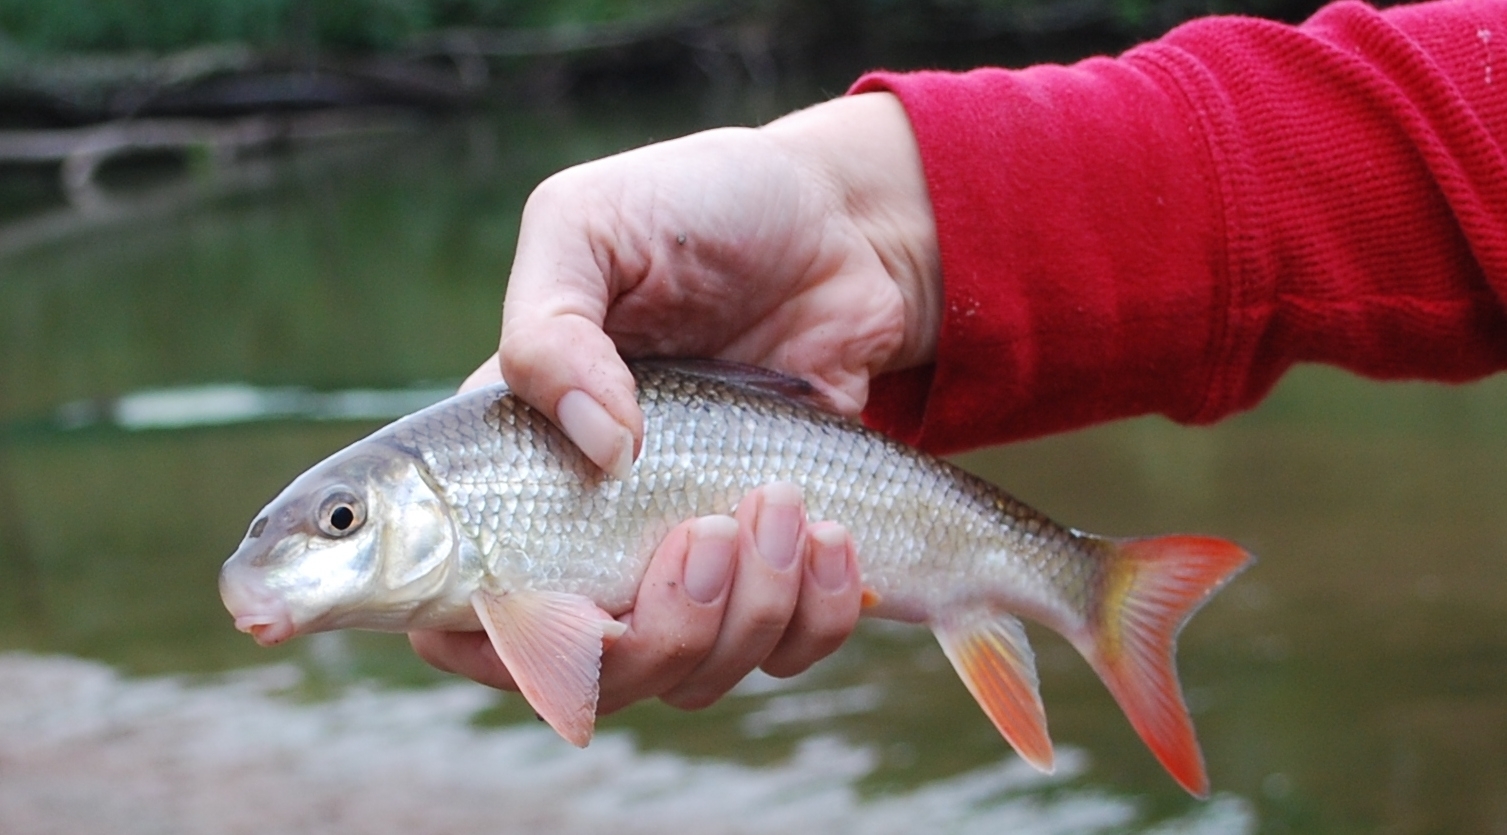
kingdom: Animalia
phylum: Chordata
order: Cypriniformes
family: Catostomidae
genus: Moxostoma
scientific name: Moxostoma macrolepidotum
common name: Shorthead redhorse
